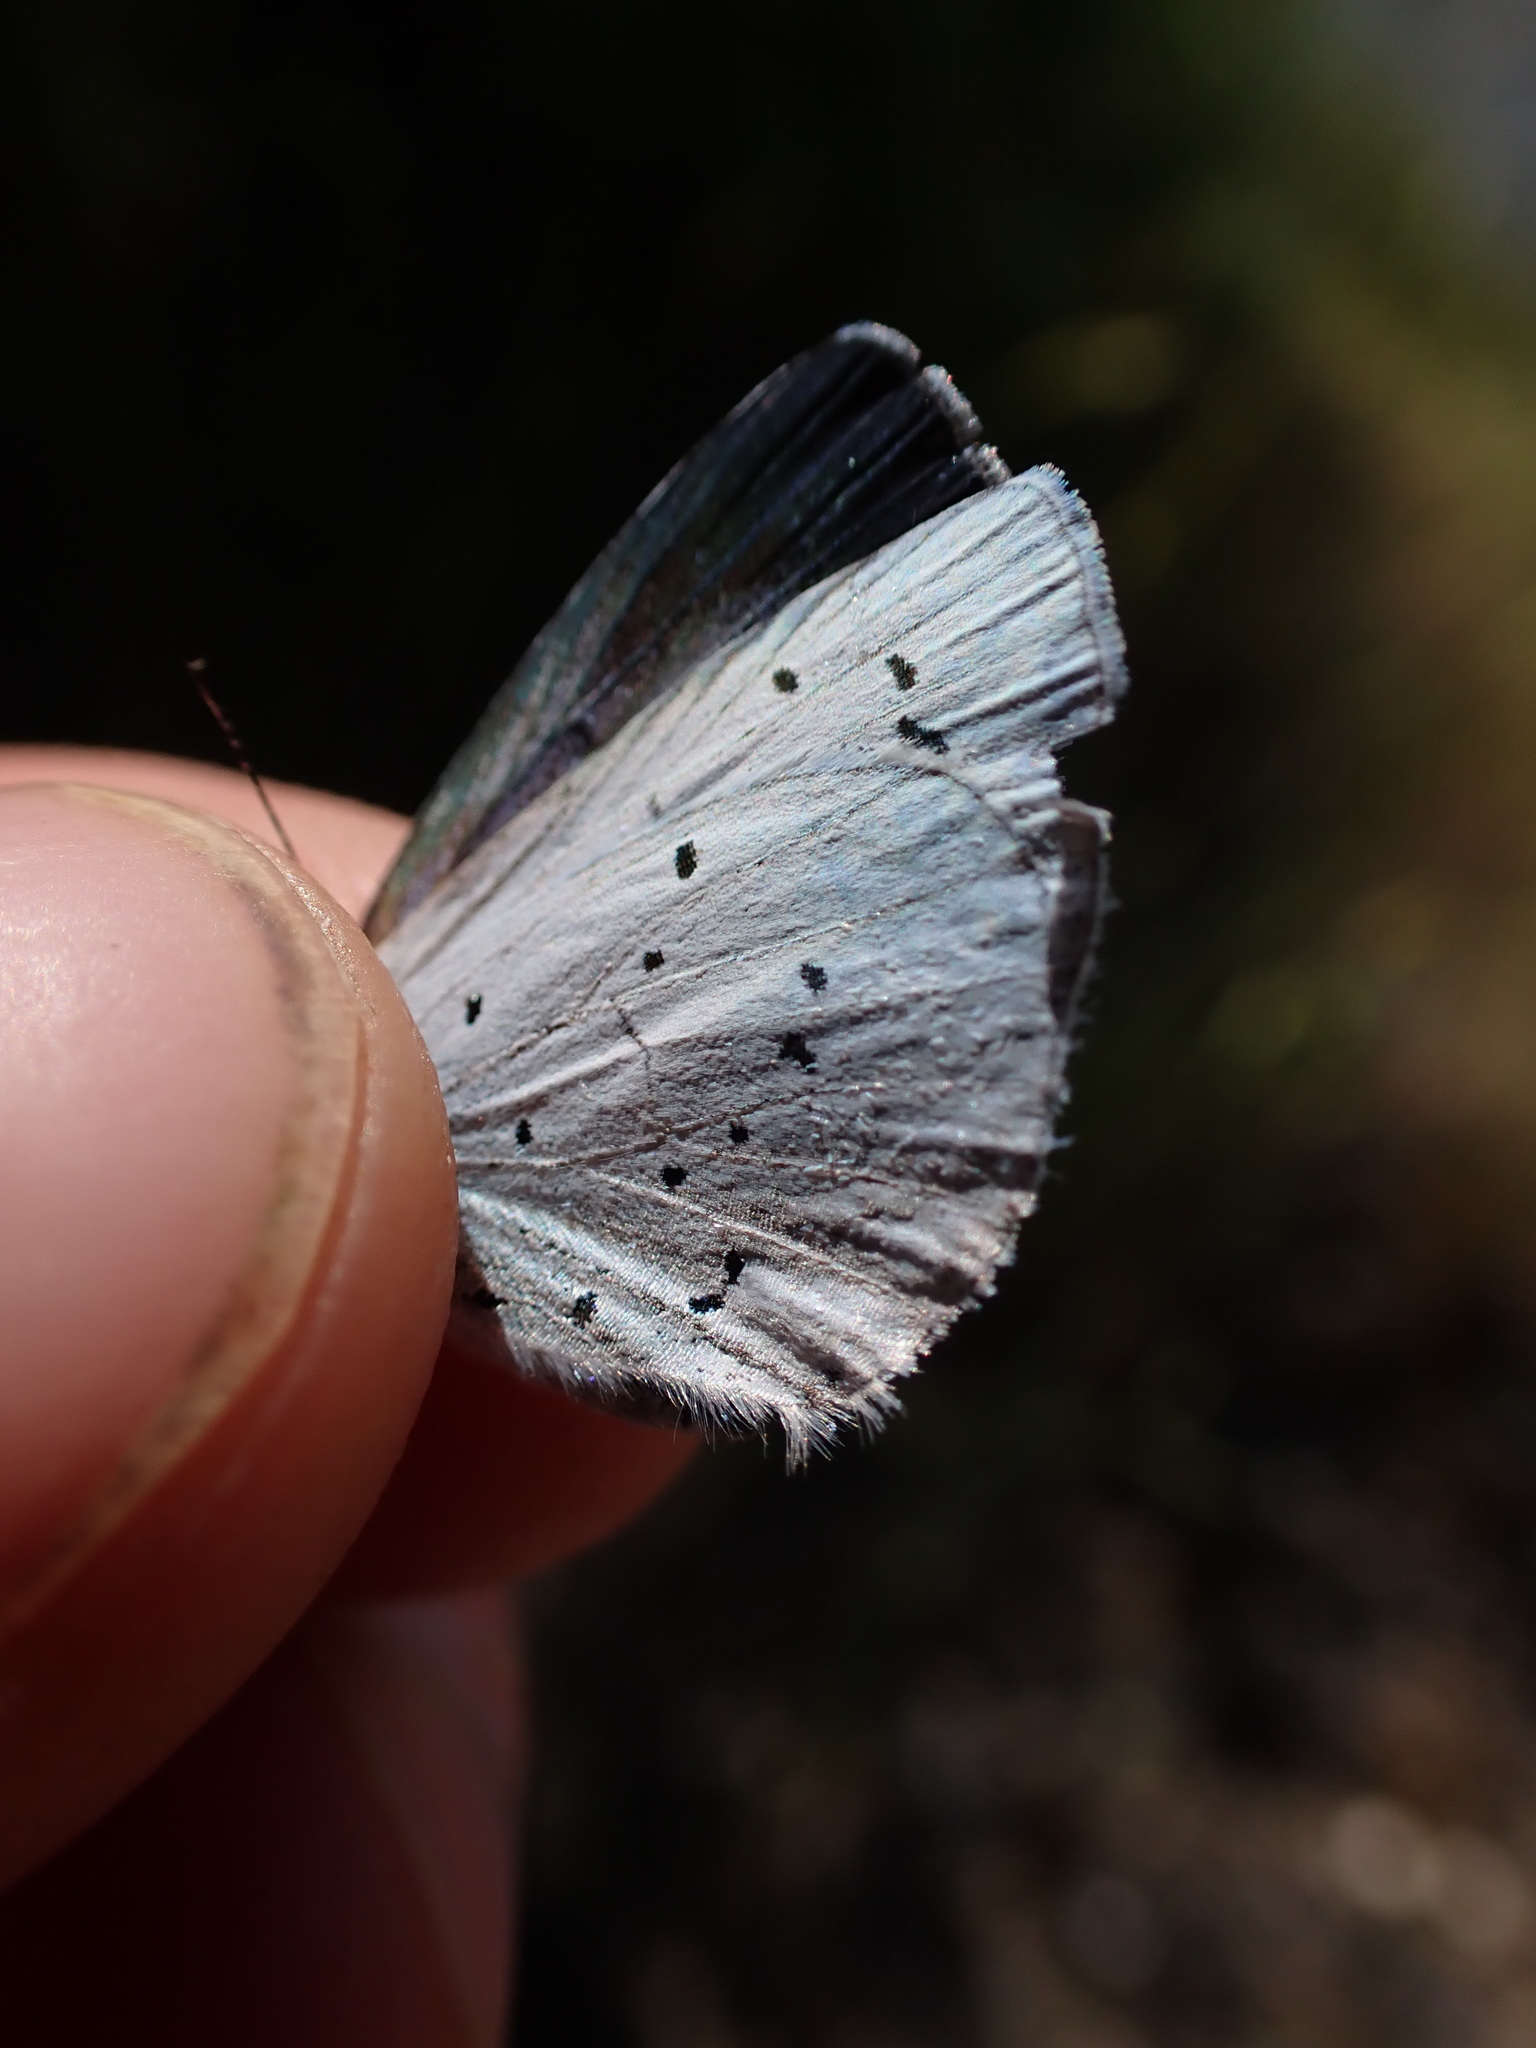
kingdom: Animalia
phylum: Arthropoda
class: Insecta
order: Lepidoptera
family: Lycaenidae
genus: Celastrina
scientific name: Celastrina argiolus
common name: Holly blue
